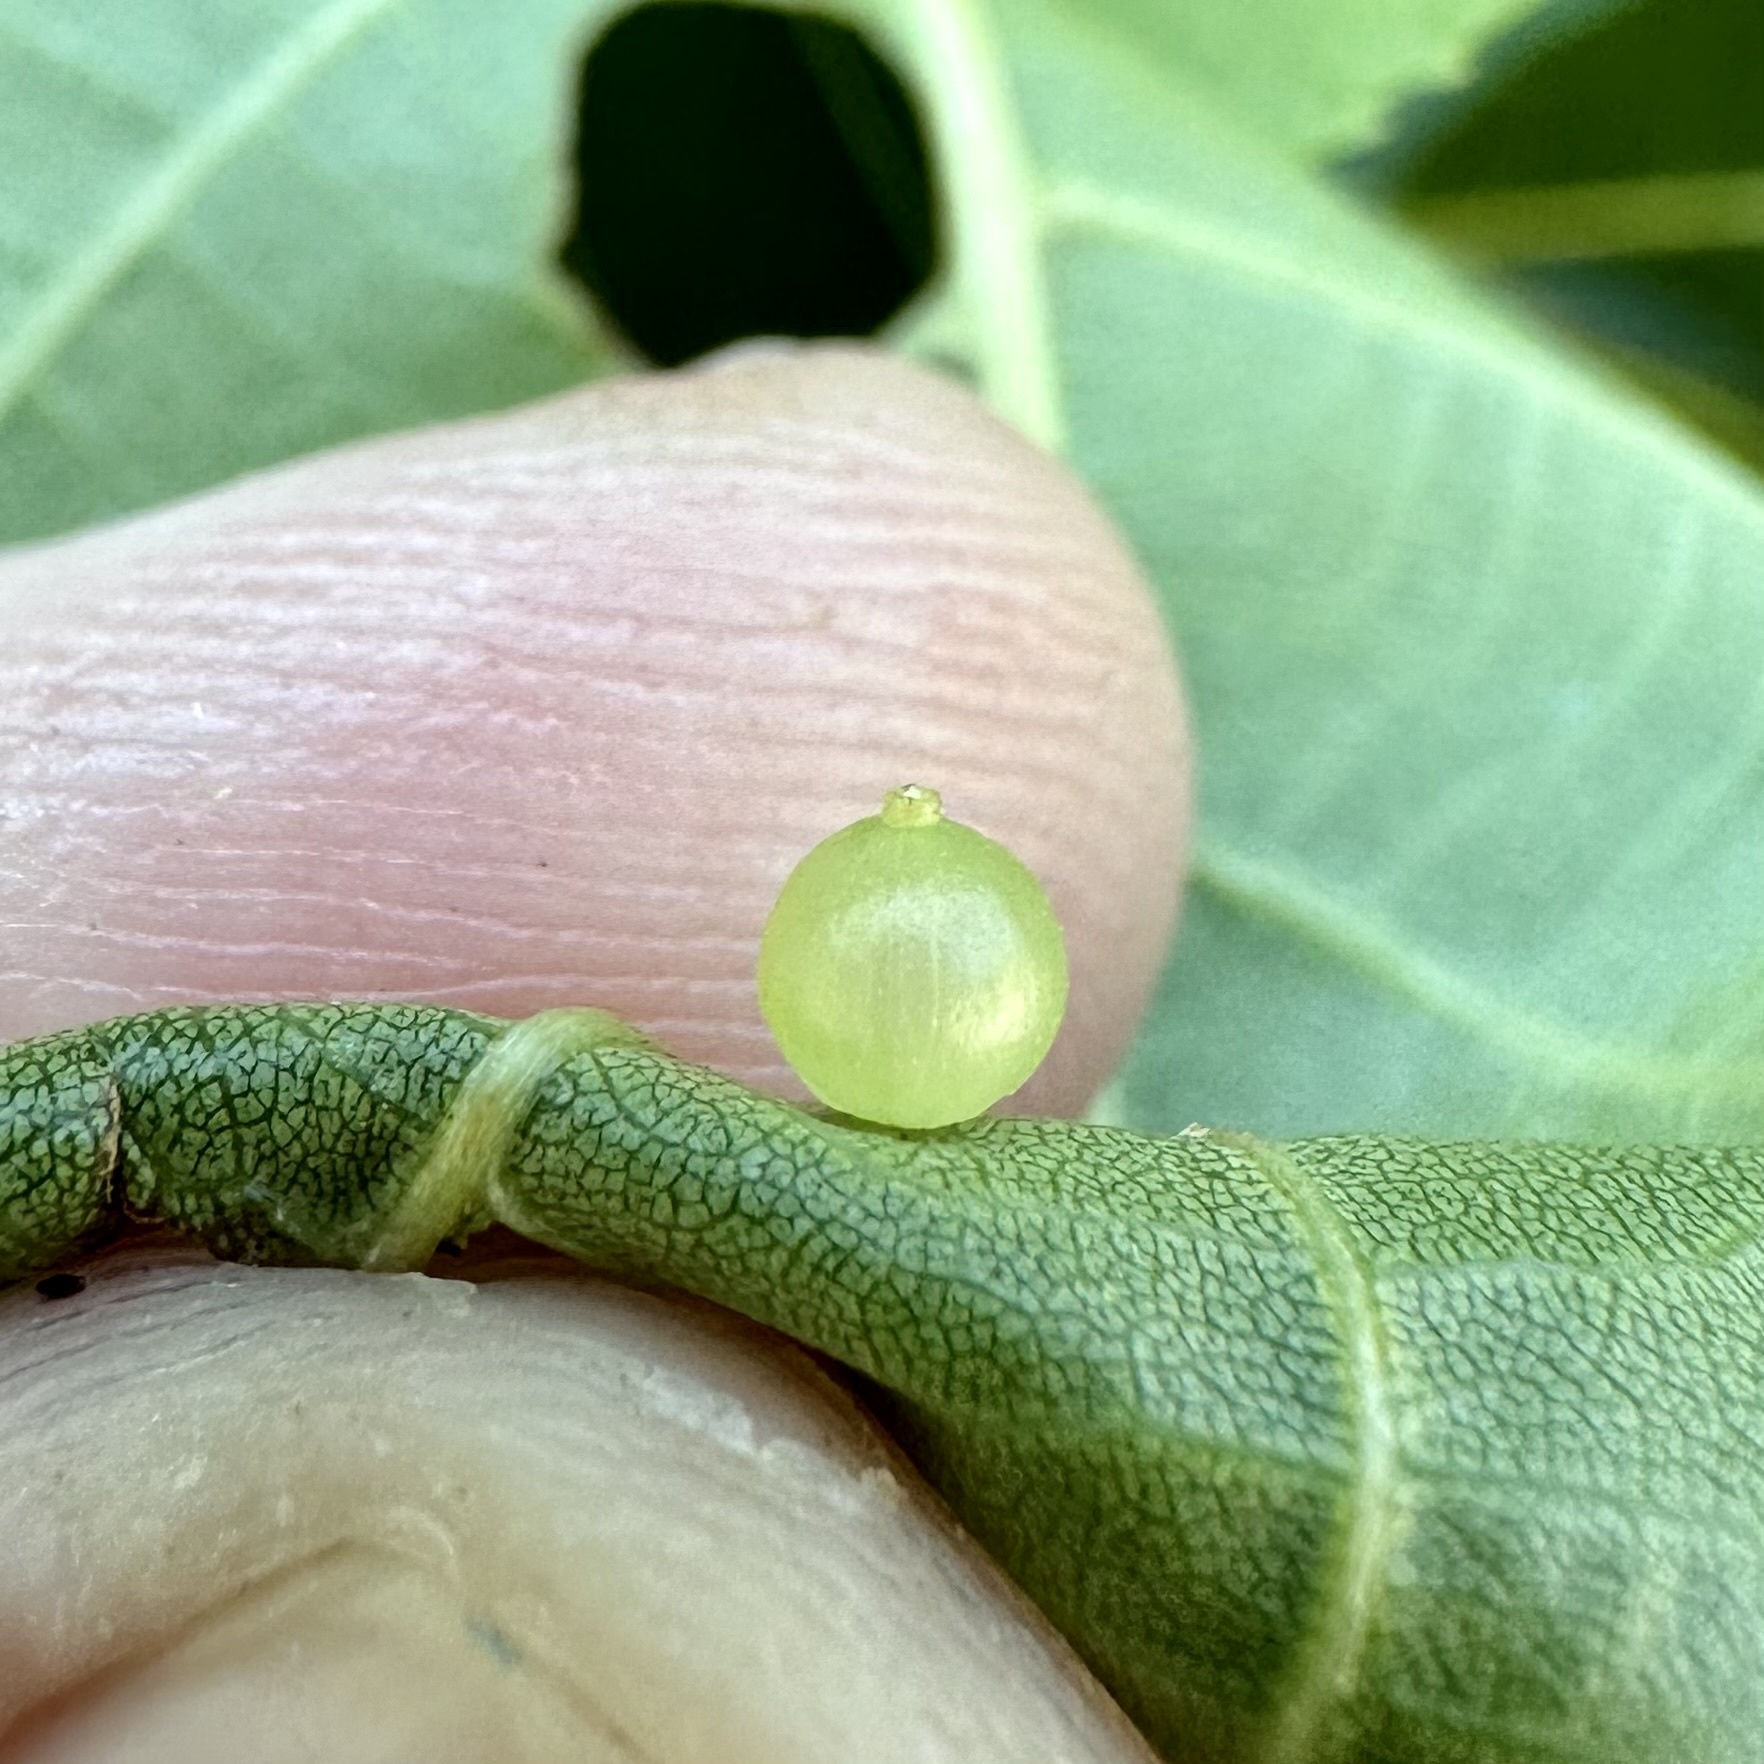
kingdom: Animalia
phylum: Arthropoda
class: Insecta
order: Diptera
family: Cecidomyiidae
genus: Caryomyia
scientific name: Caryomyia leviglobus
